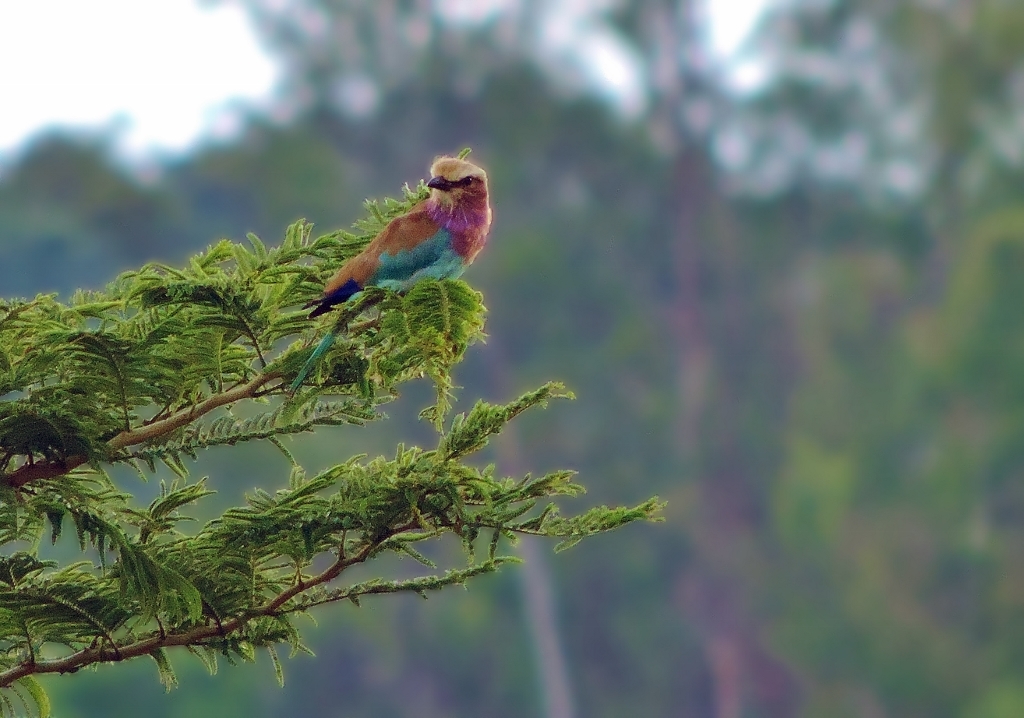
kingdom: Animalia
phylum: Chordata
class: Aves
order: Coraciiformes
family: Coraciidae
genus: Coracias
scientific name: Coracias caudatus
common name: Lilac-breasted roller
